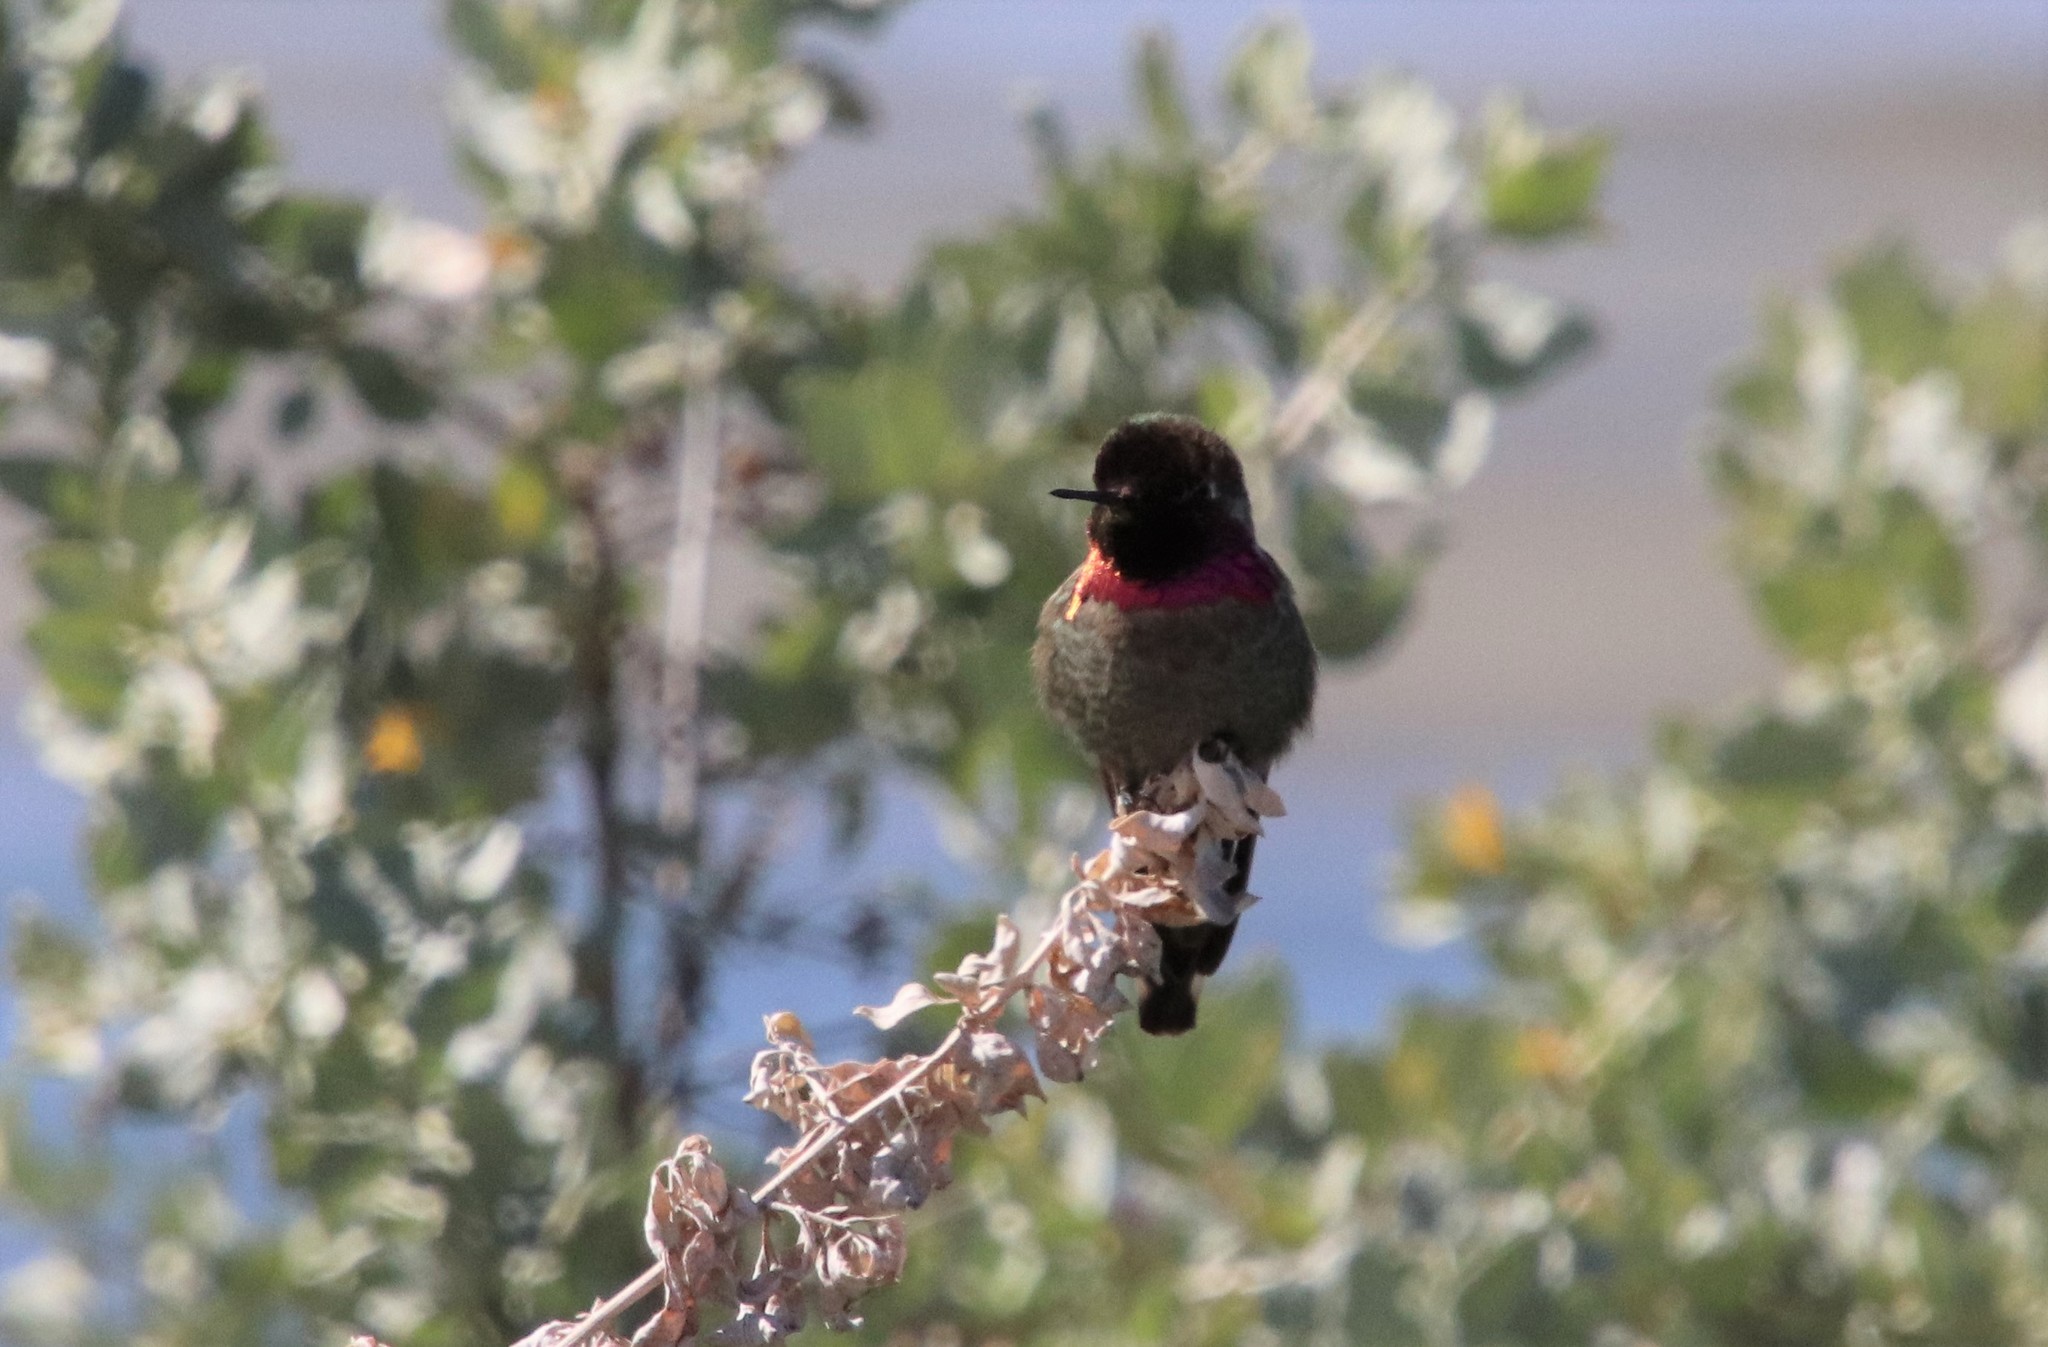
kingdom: Animalia
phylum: Chordata
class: Aves
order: Apodiformes
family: Trochilidae
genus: Calypte
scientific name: Calypte anna
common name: Anna's hummingbird
